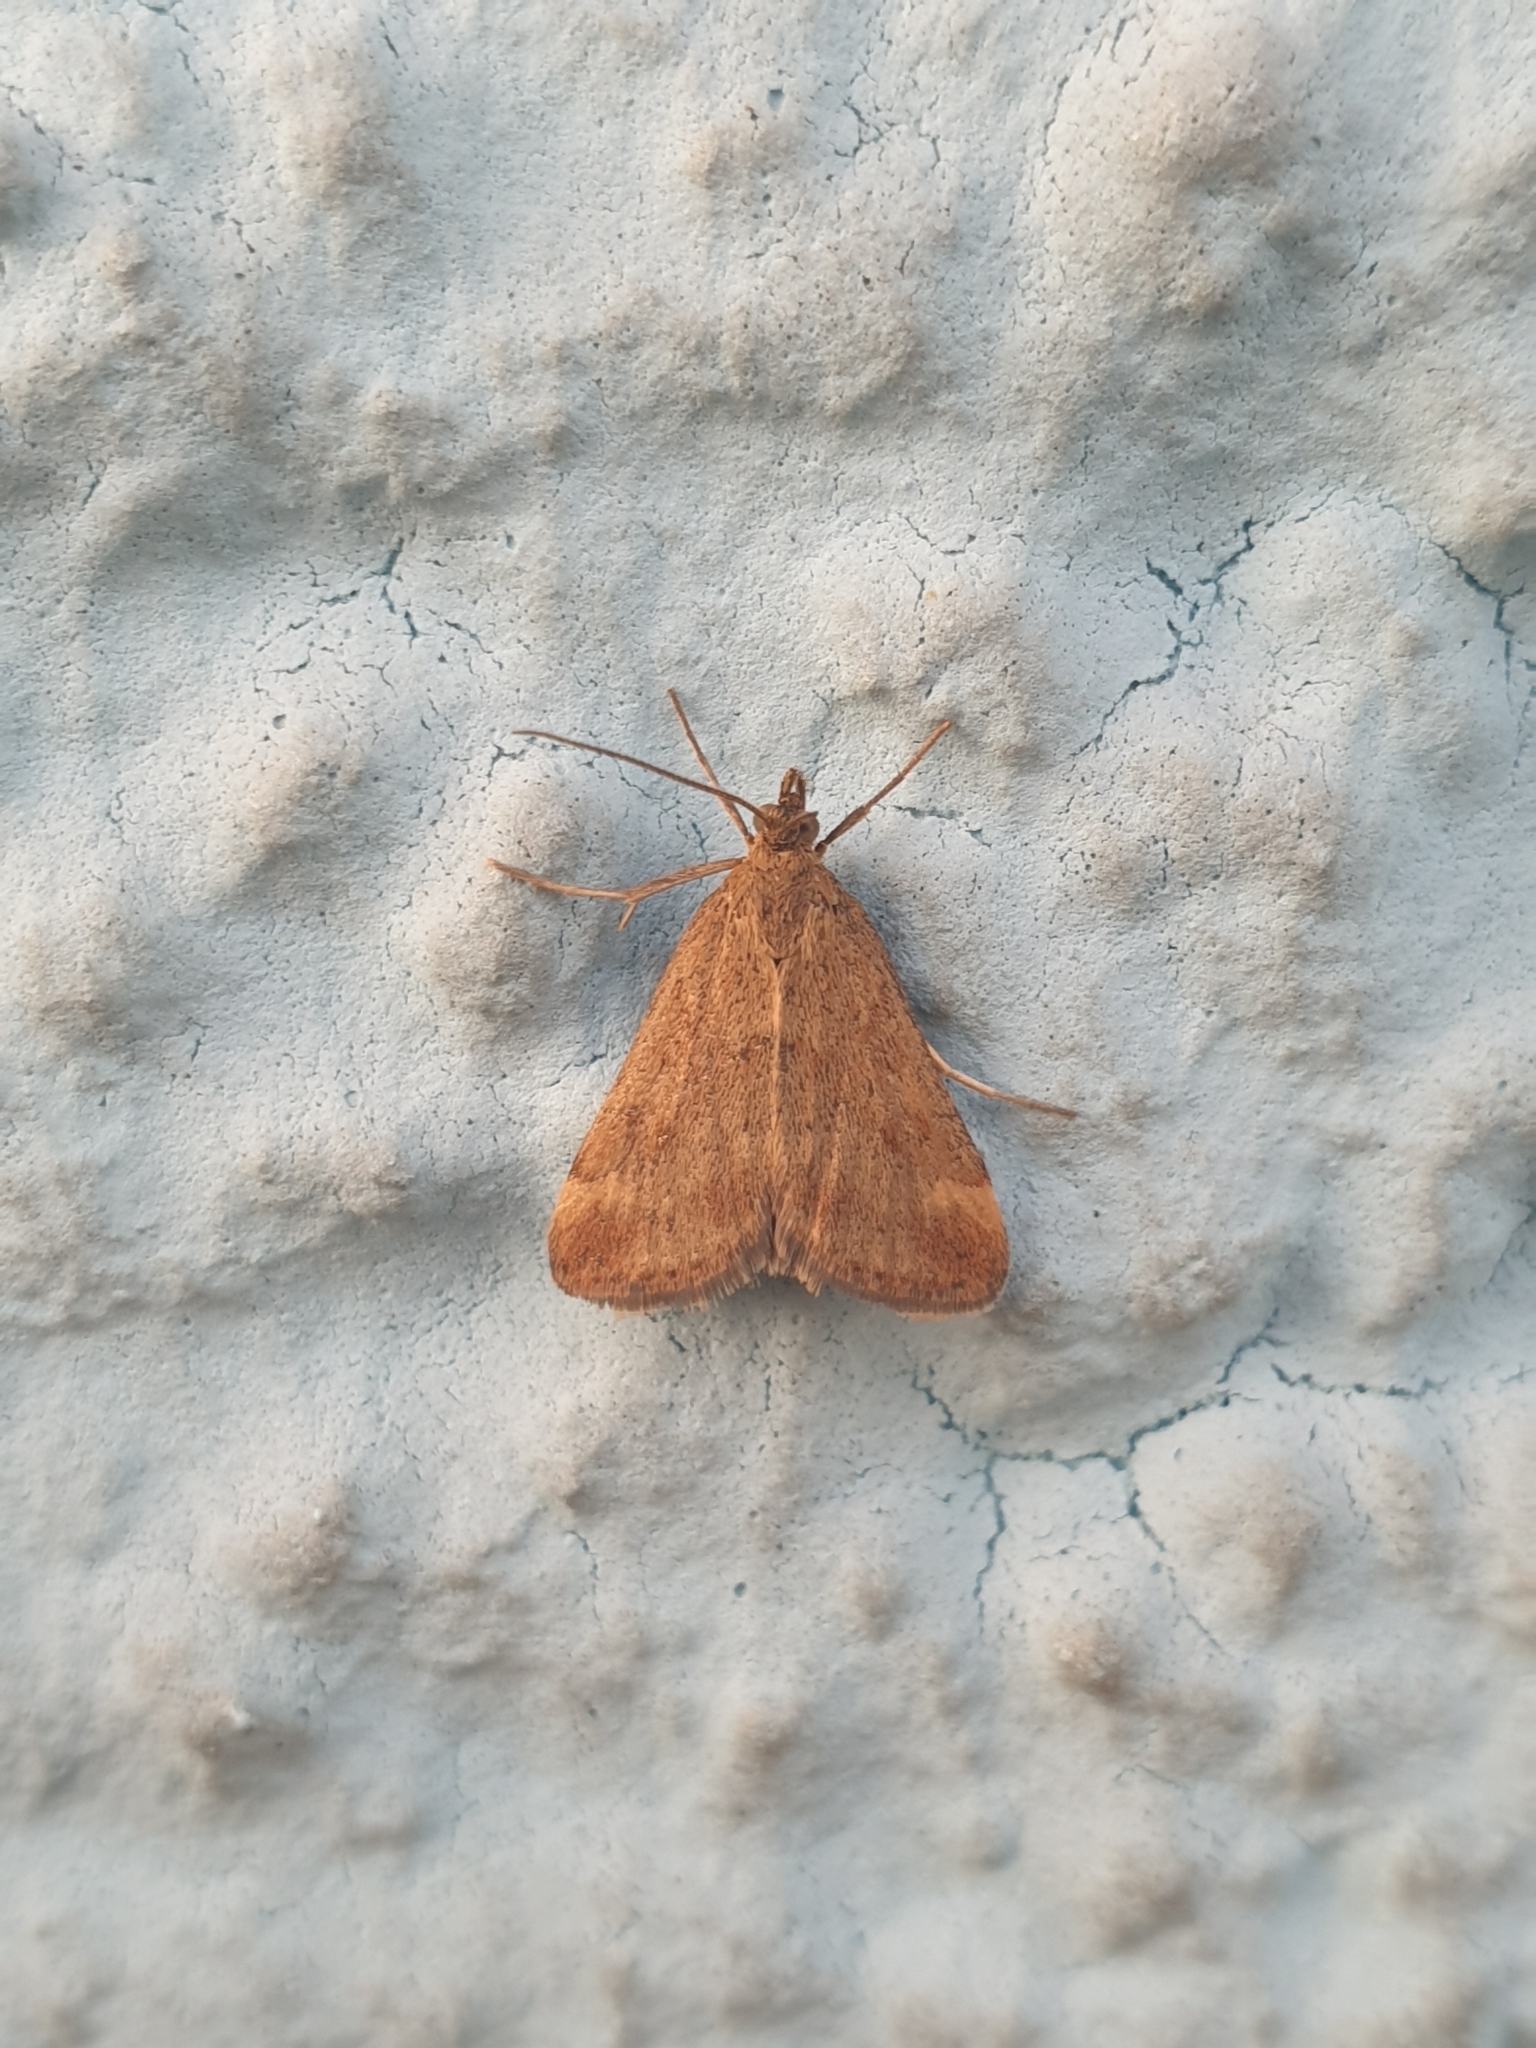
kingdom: Animalia
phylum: Arthropoda
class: Insecta
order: Lepidoptera
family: Crambidae
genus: Pyrausta
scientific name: Pyrausta despicata
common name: Straw-barred pearl
